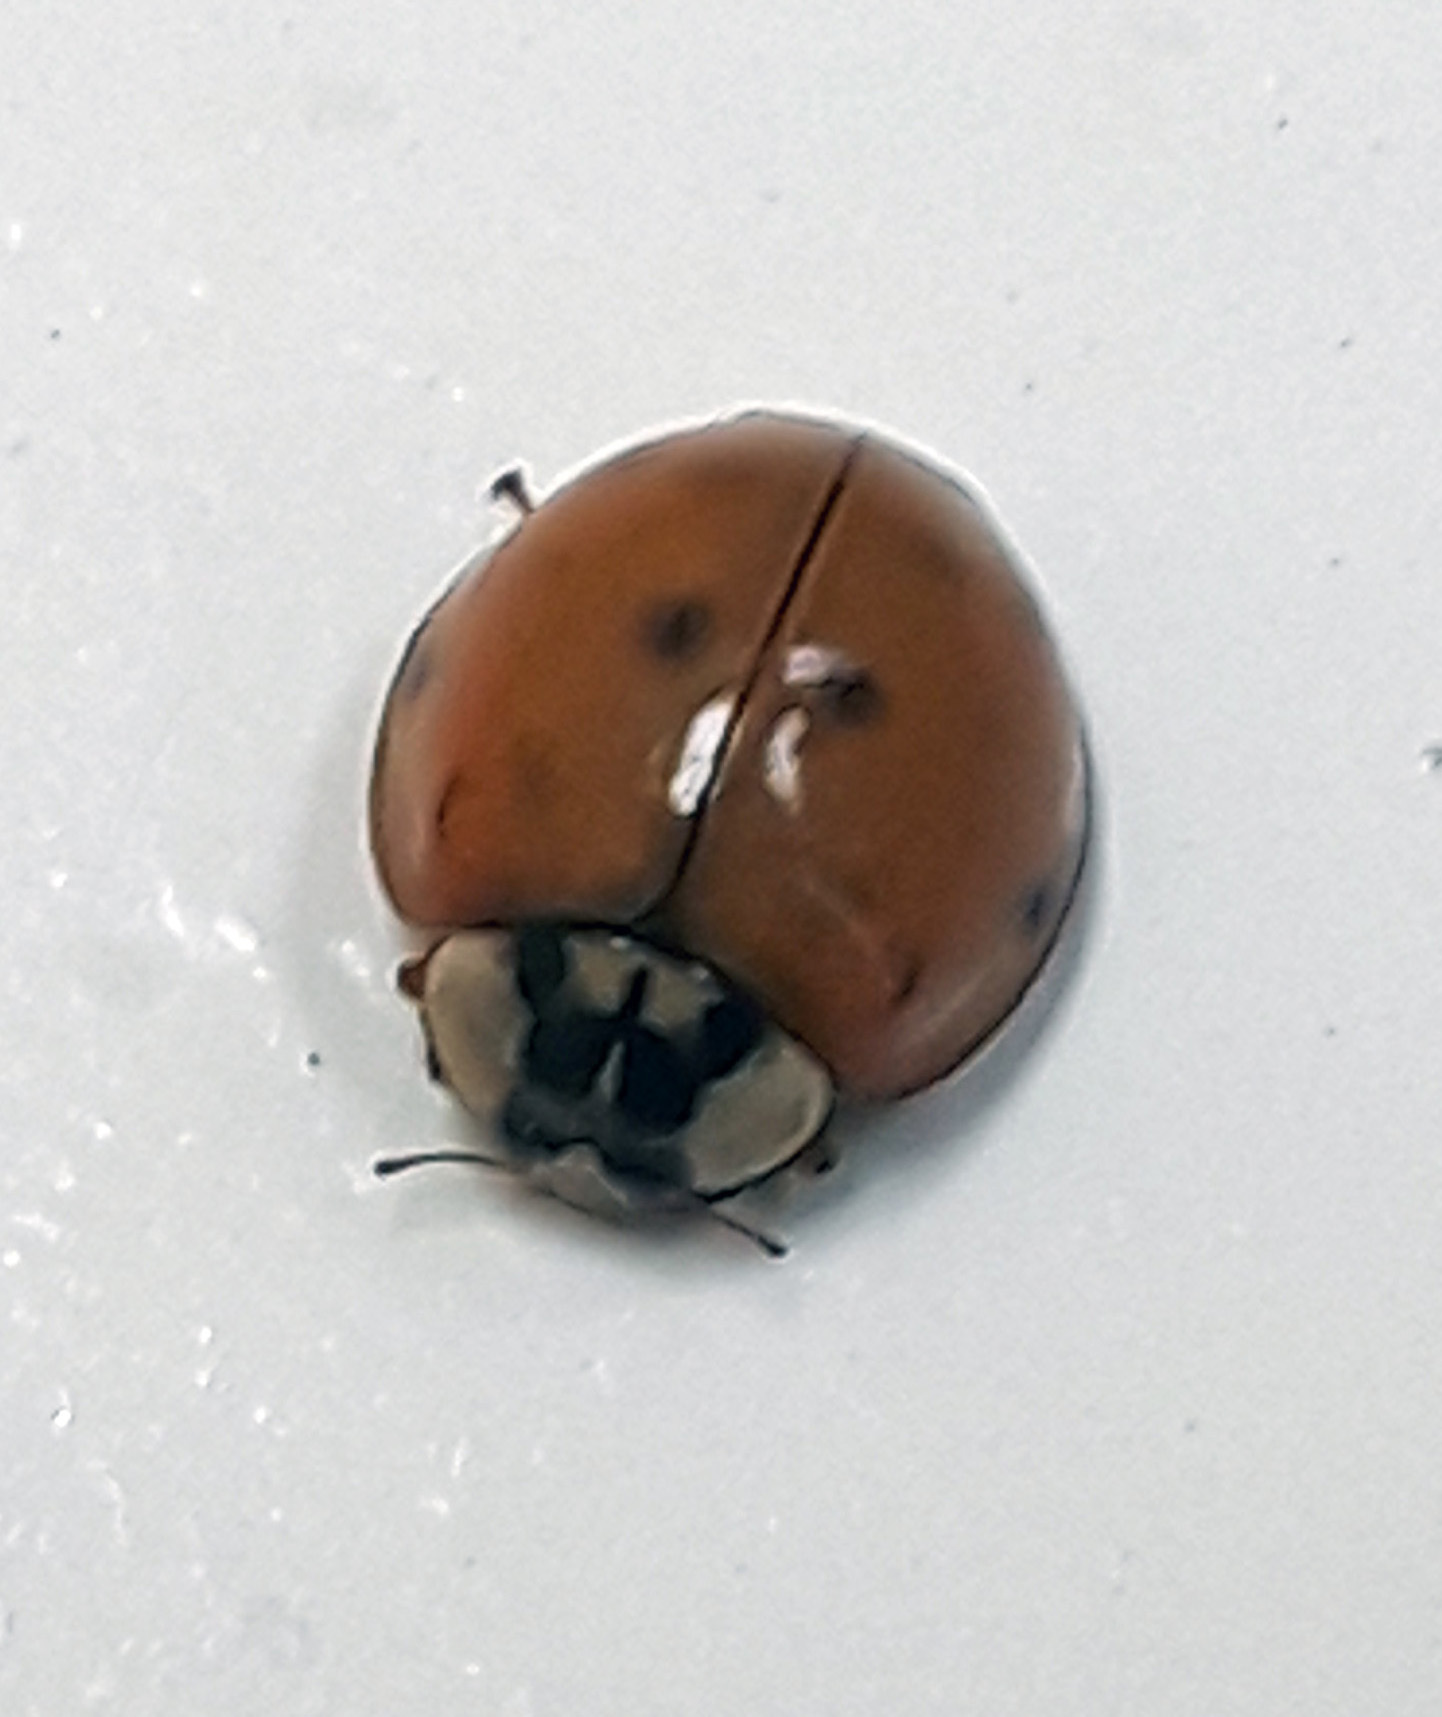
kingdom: Animalia
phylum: Arthropoda
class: Insecta
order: Coleoptera
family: Coccinellidae
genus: Harmonia
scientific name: Harmonia axyridis
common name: Harlequin ladybird
